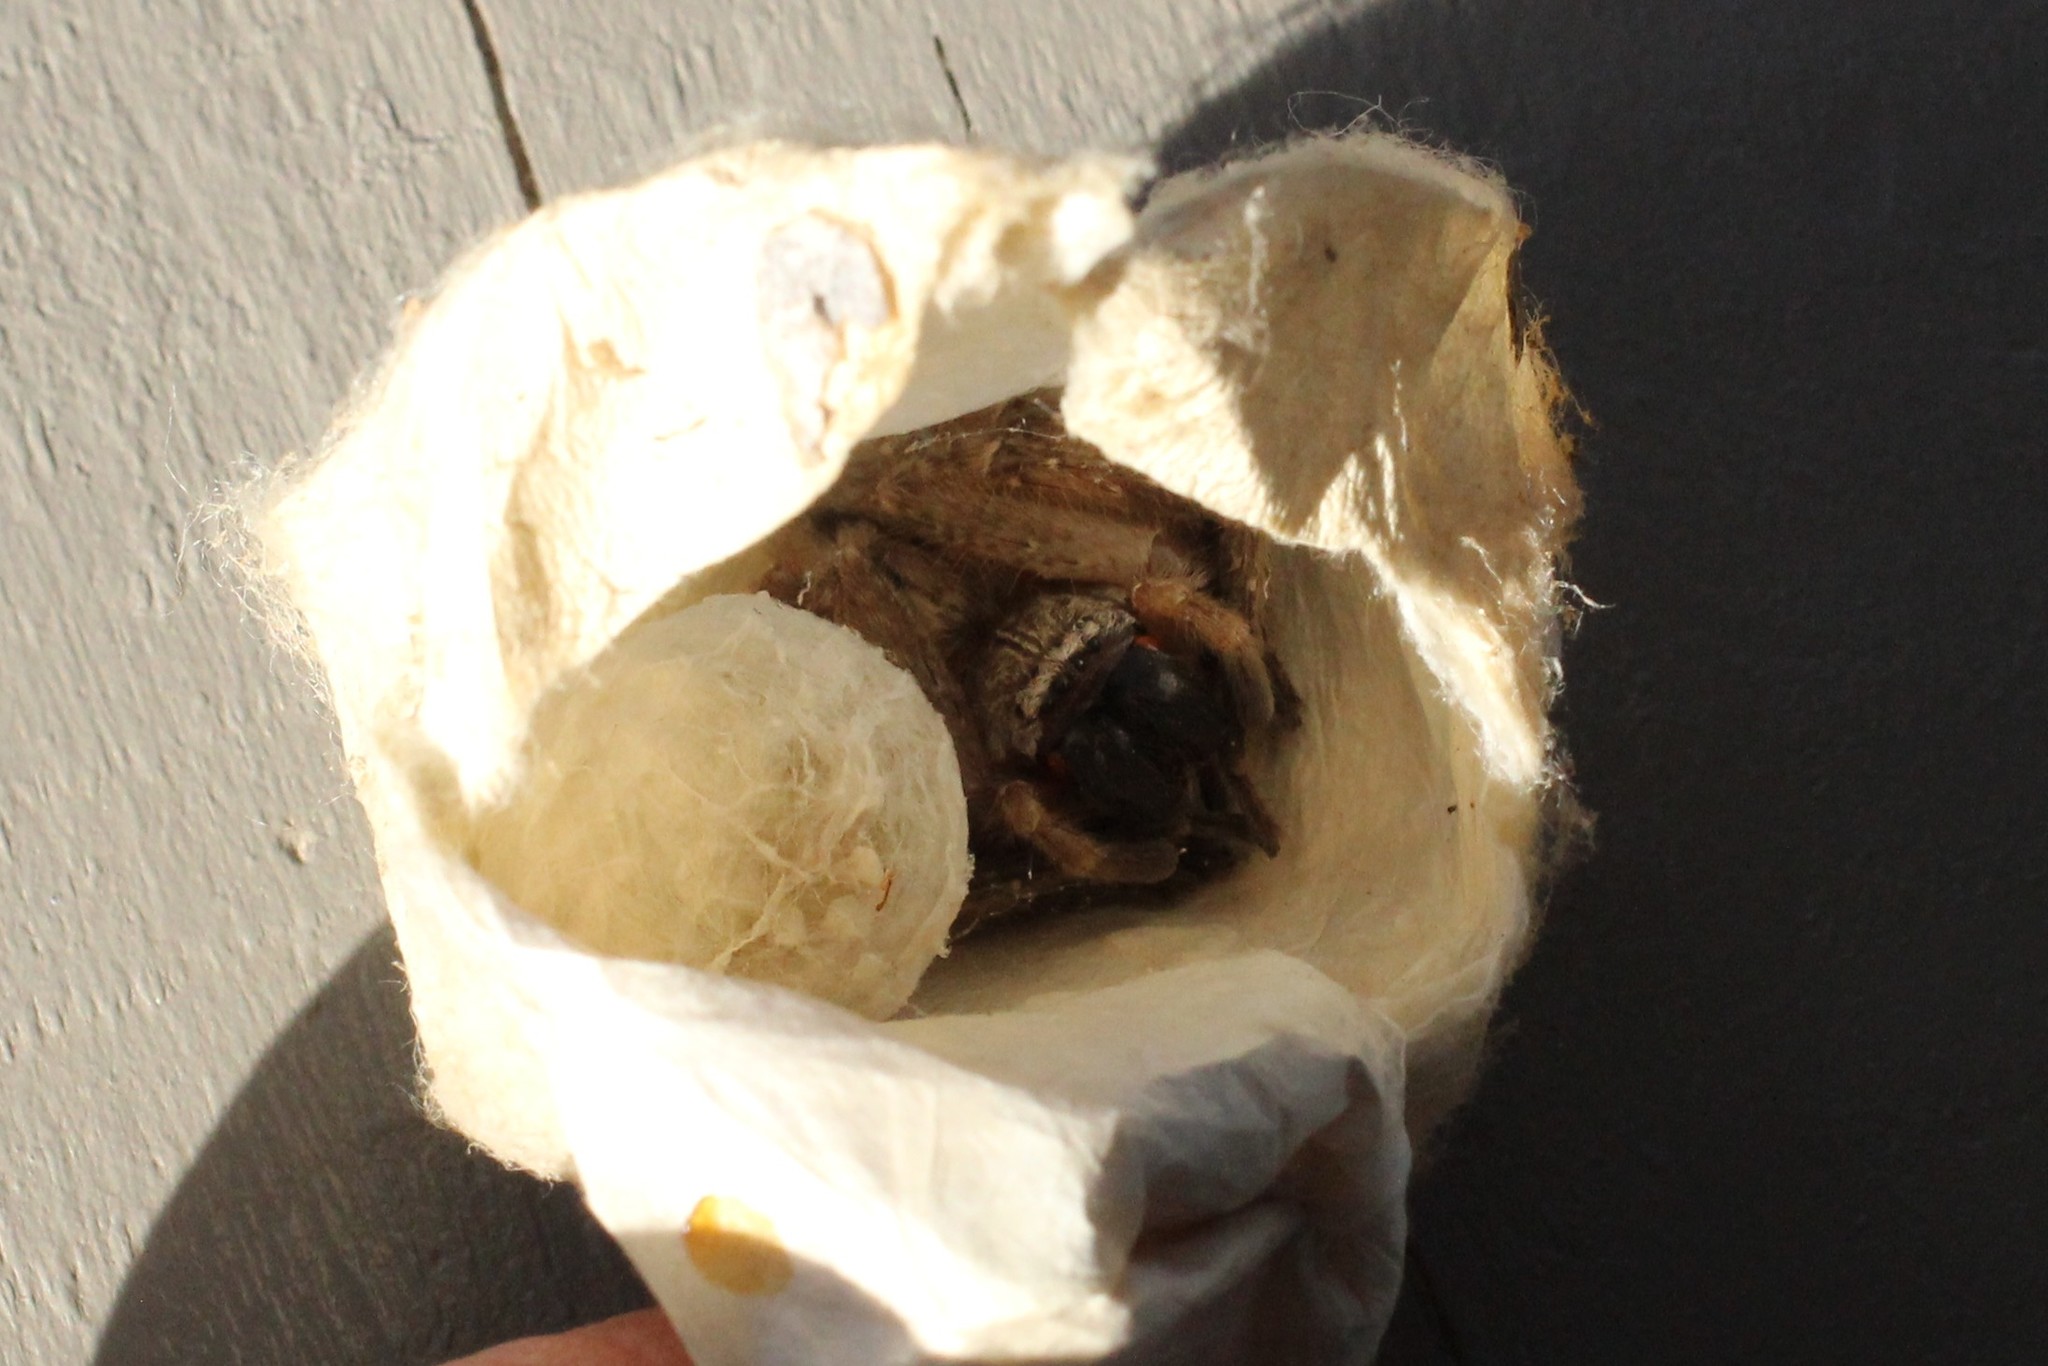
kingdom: Animalia
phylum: Arthropoda
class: Arachnida
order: Araneae
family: Sparassidae
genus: Olios
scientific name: Olios giganteus
